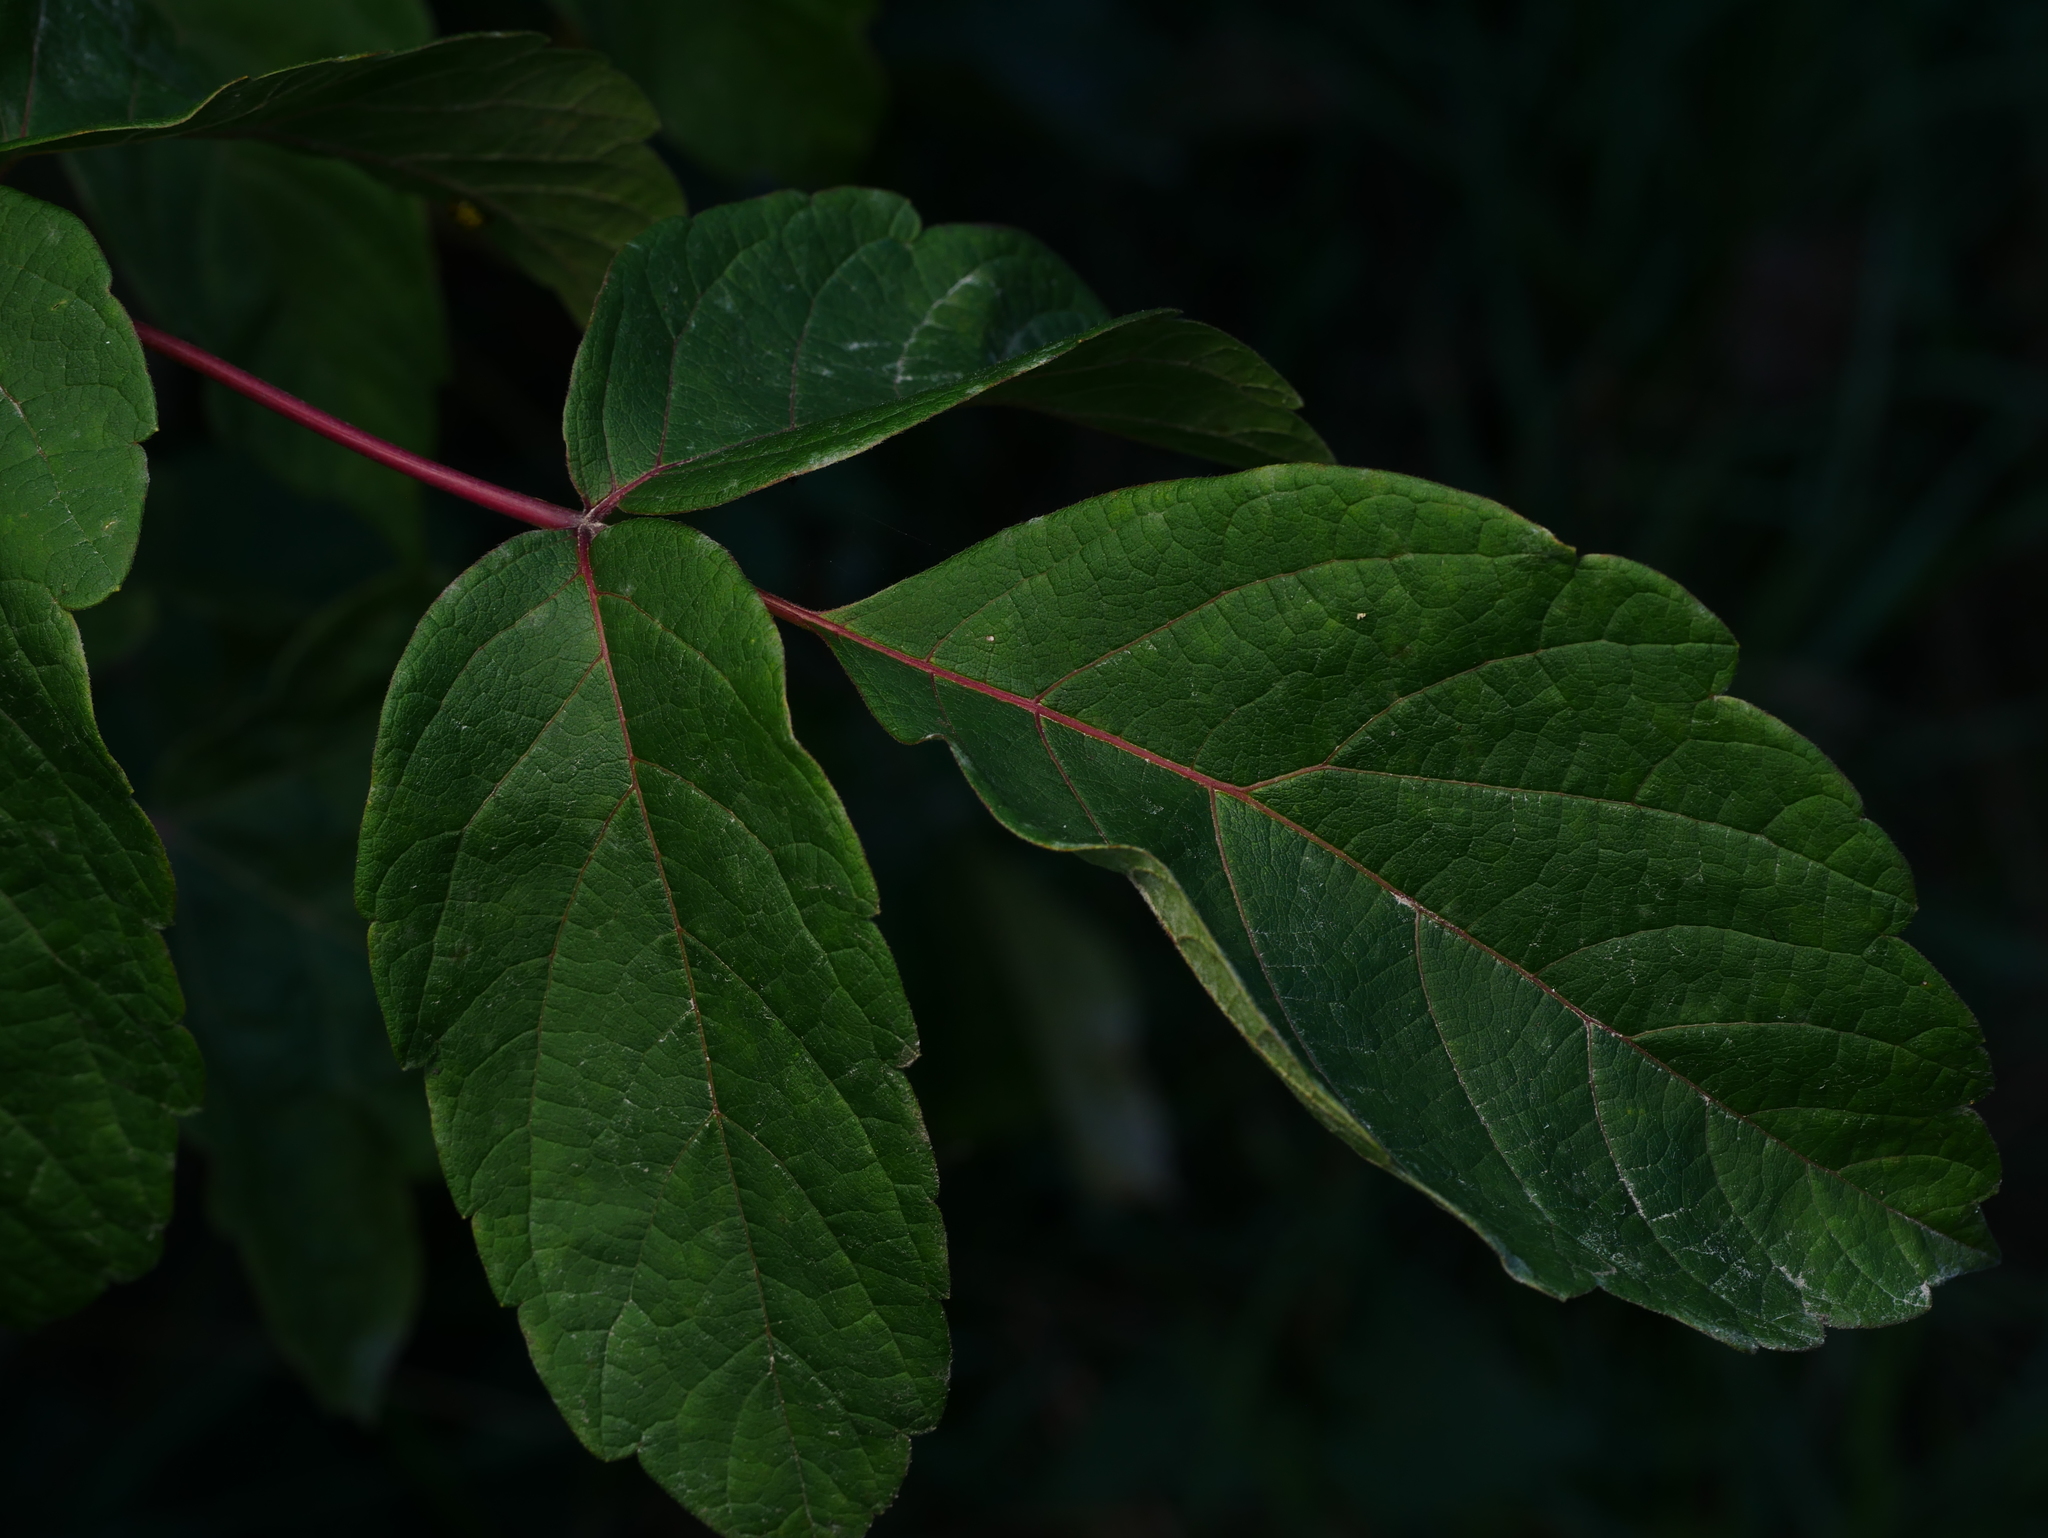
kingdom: Plantae
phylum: Tracheophyta
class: Magnoliopsida
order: Sapindales
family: Sapindaceae
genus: Acer
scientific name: Acer negundo
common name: Ashleaf maple
